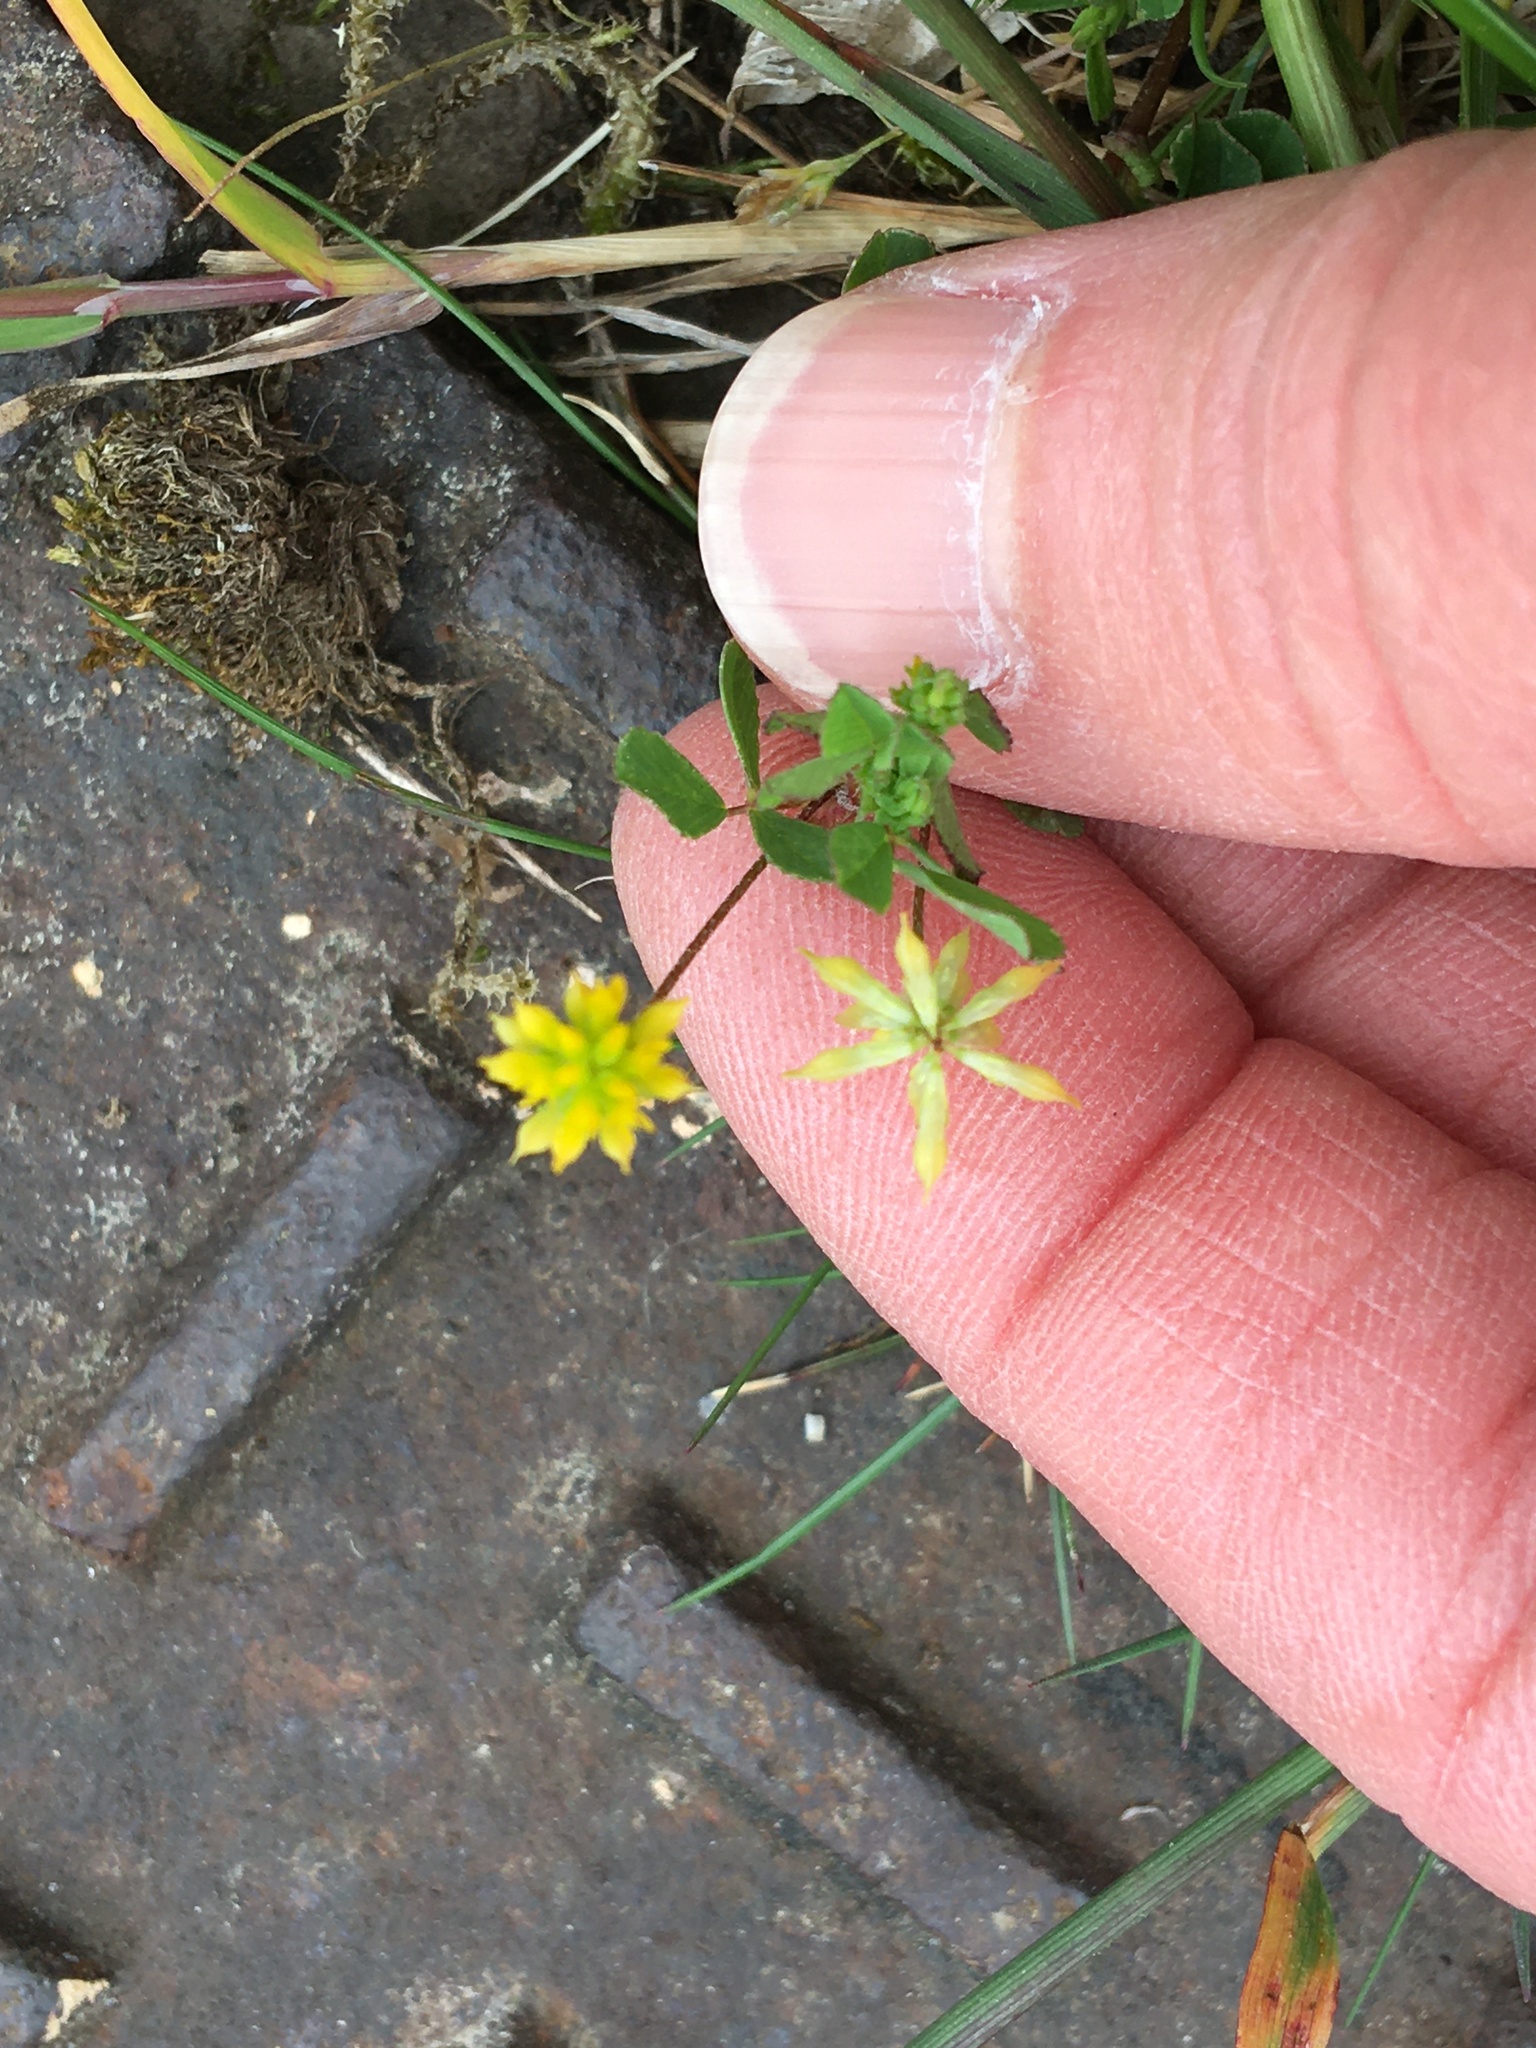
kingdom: Plantae
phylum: Tracheophyta
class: Magnoliopsida
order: Fabales
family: Fabaceae
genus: Trifolium
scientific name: Trifolium dubium
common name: Suckling clover
